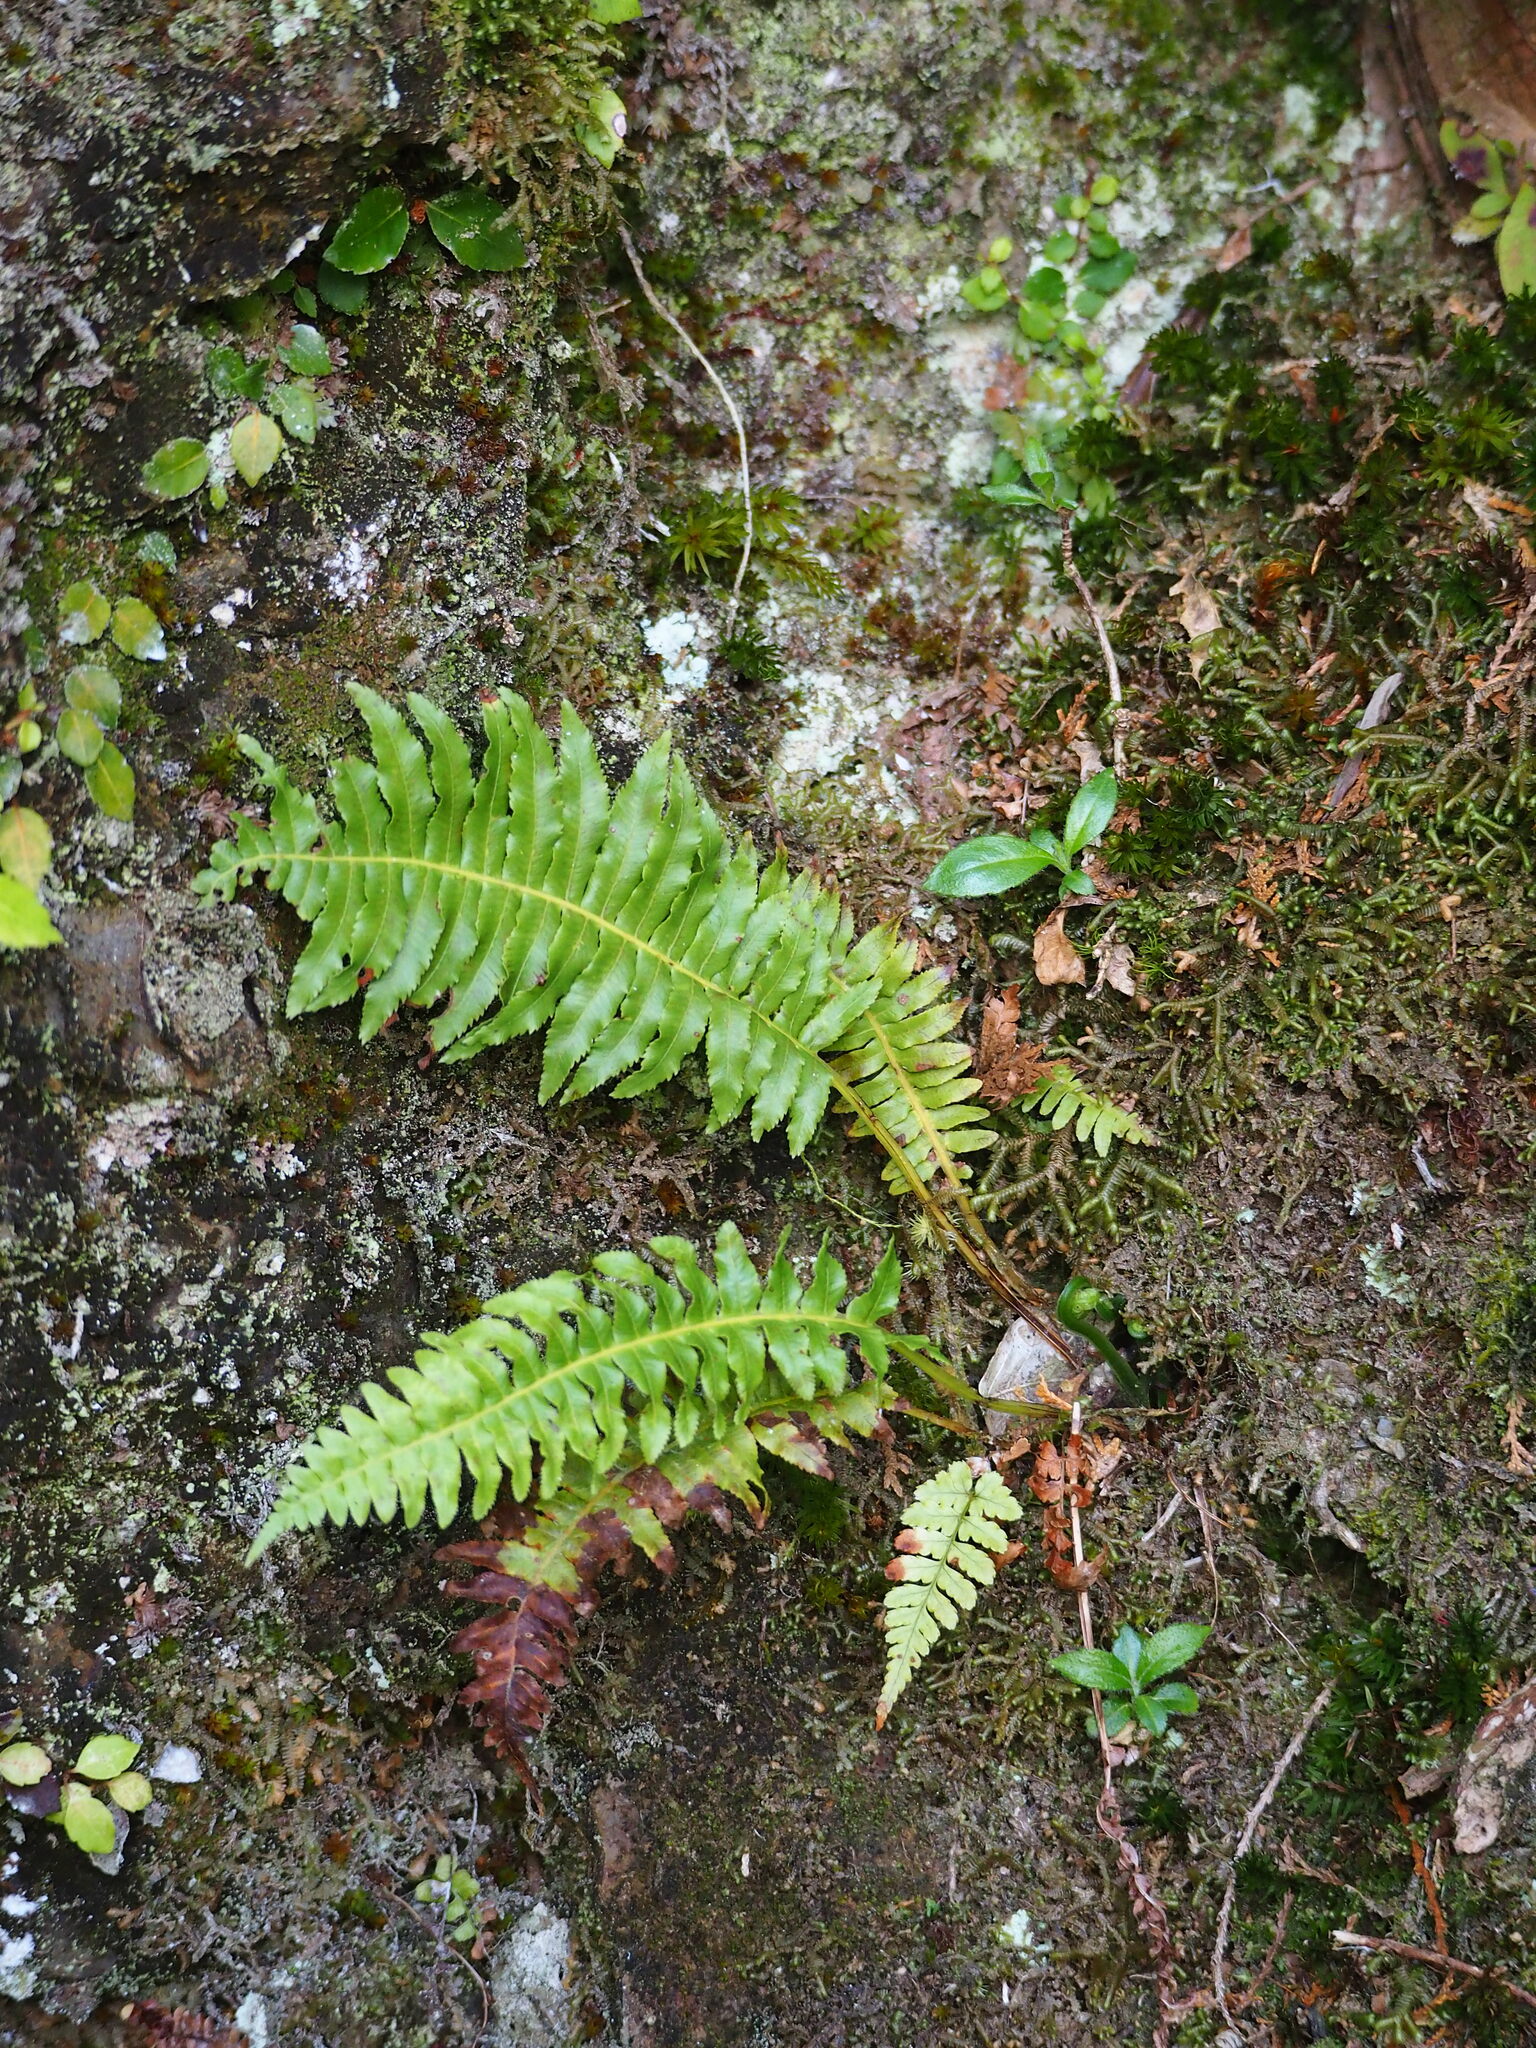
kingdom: Plantae
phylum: Tracheophyta
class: Polypodiopsida
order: Cyatheales
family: Plagiogyriaceae
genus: Plagiogyria
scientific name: Plagiogyria stenoptera
